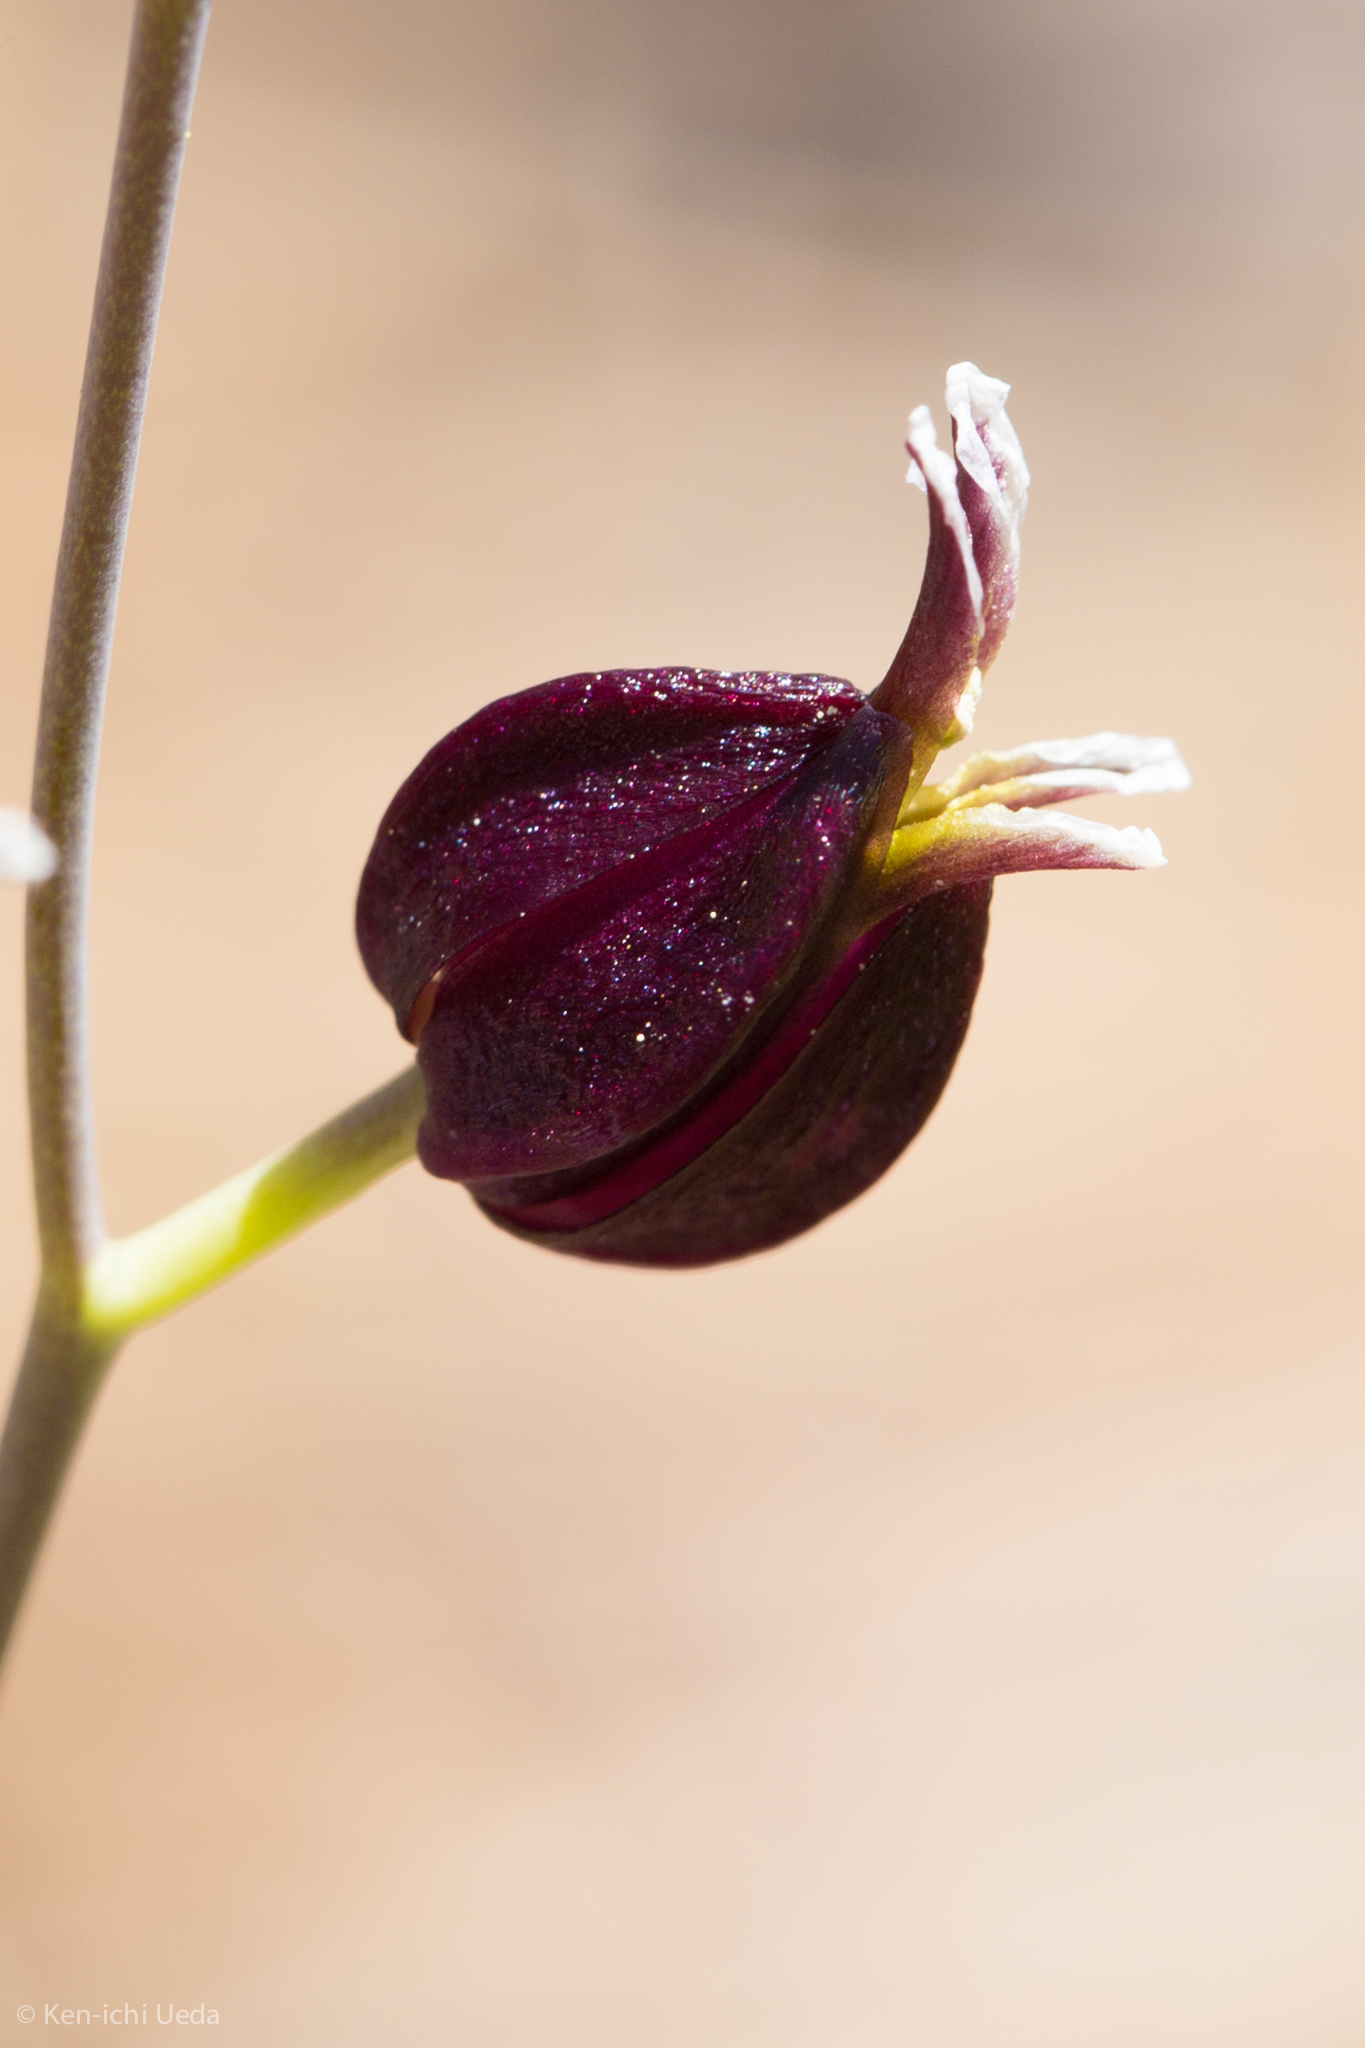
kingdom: Plantae
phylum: Tracheophyta
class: Magnoliopsida
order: Brassicales
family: Brassicaceae
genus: Streptanthus
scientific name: Streptanthus glandulosus
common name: Jewel-flower
